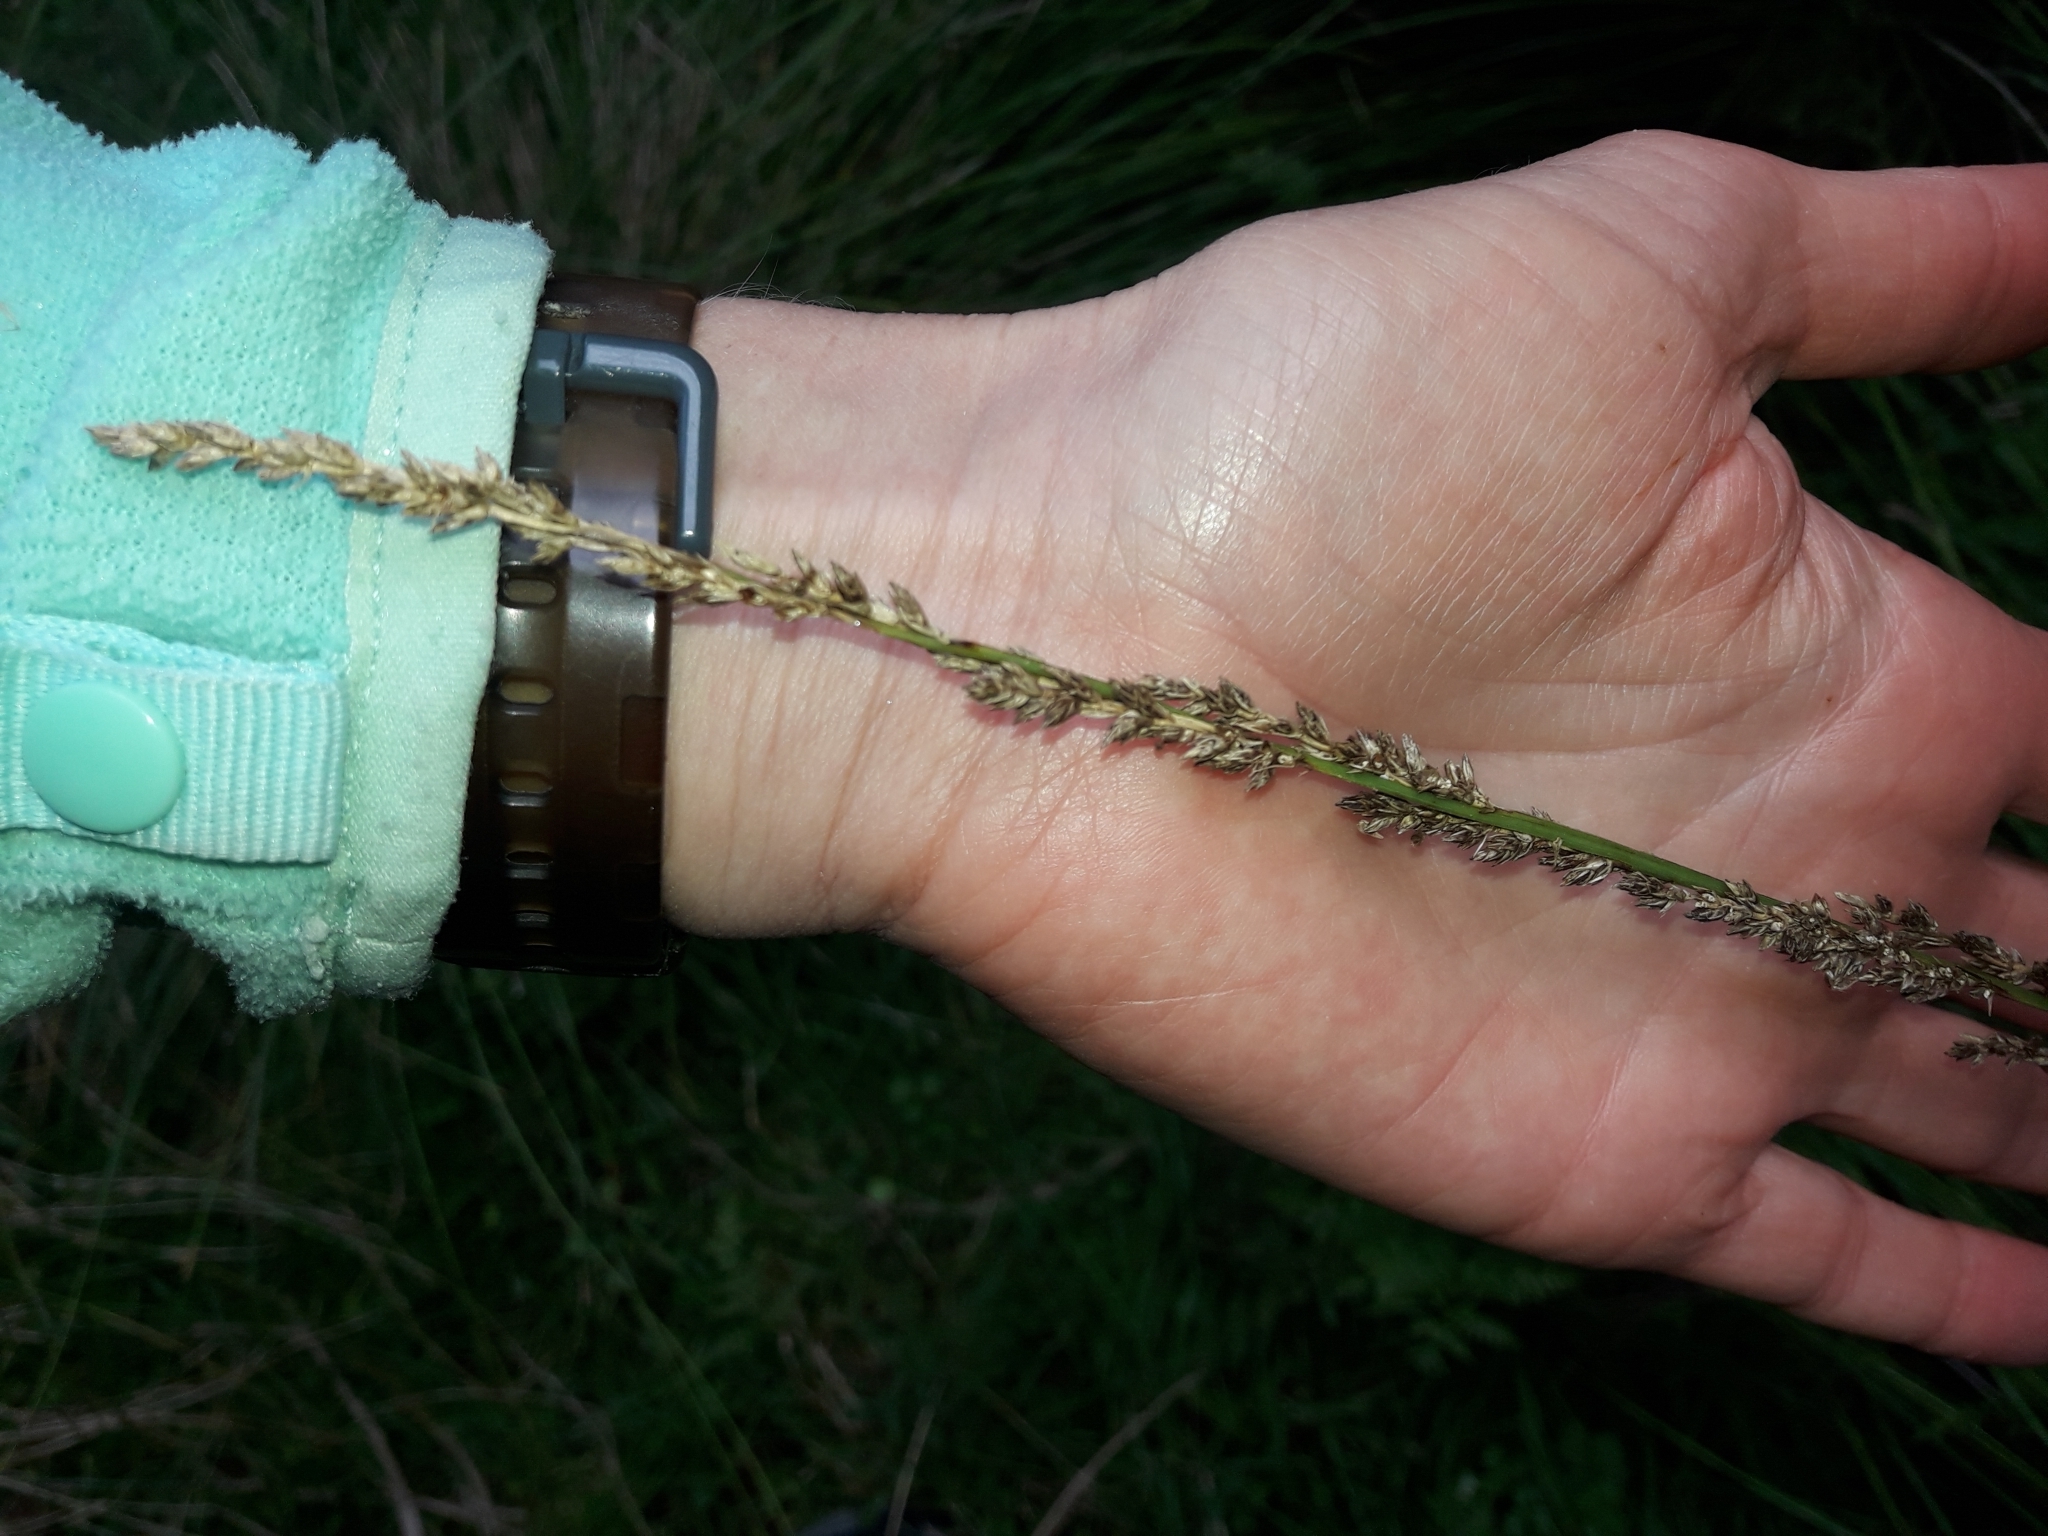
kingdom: Plantae
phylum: Tracheophyta
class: Liliopsida
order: Poales
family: Cyperaceae
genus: Carex
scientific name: Carex virgata
